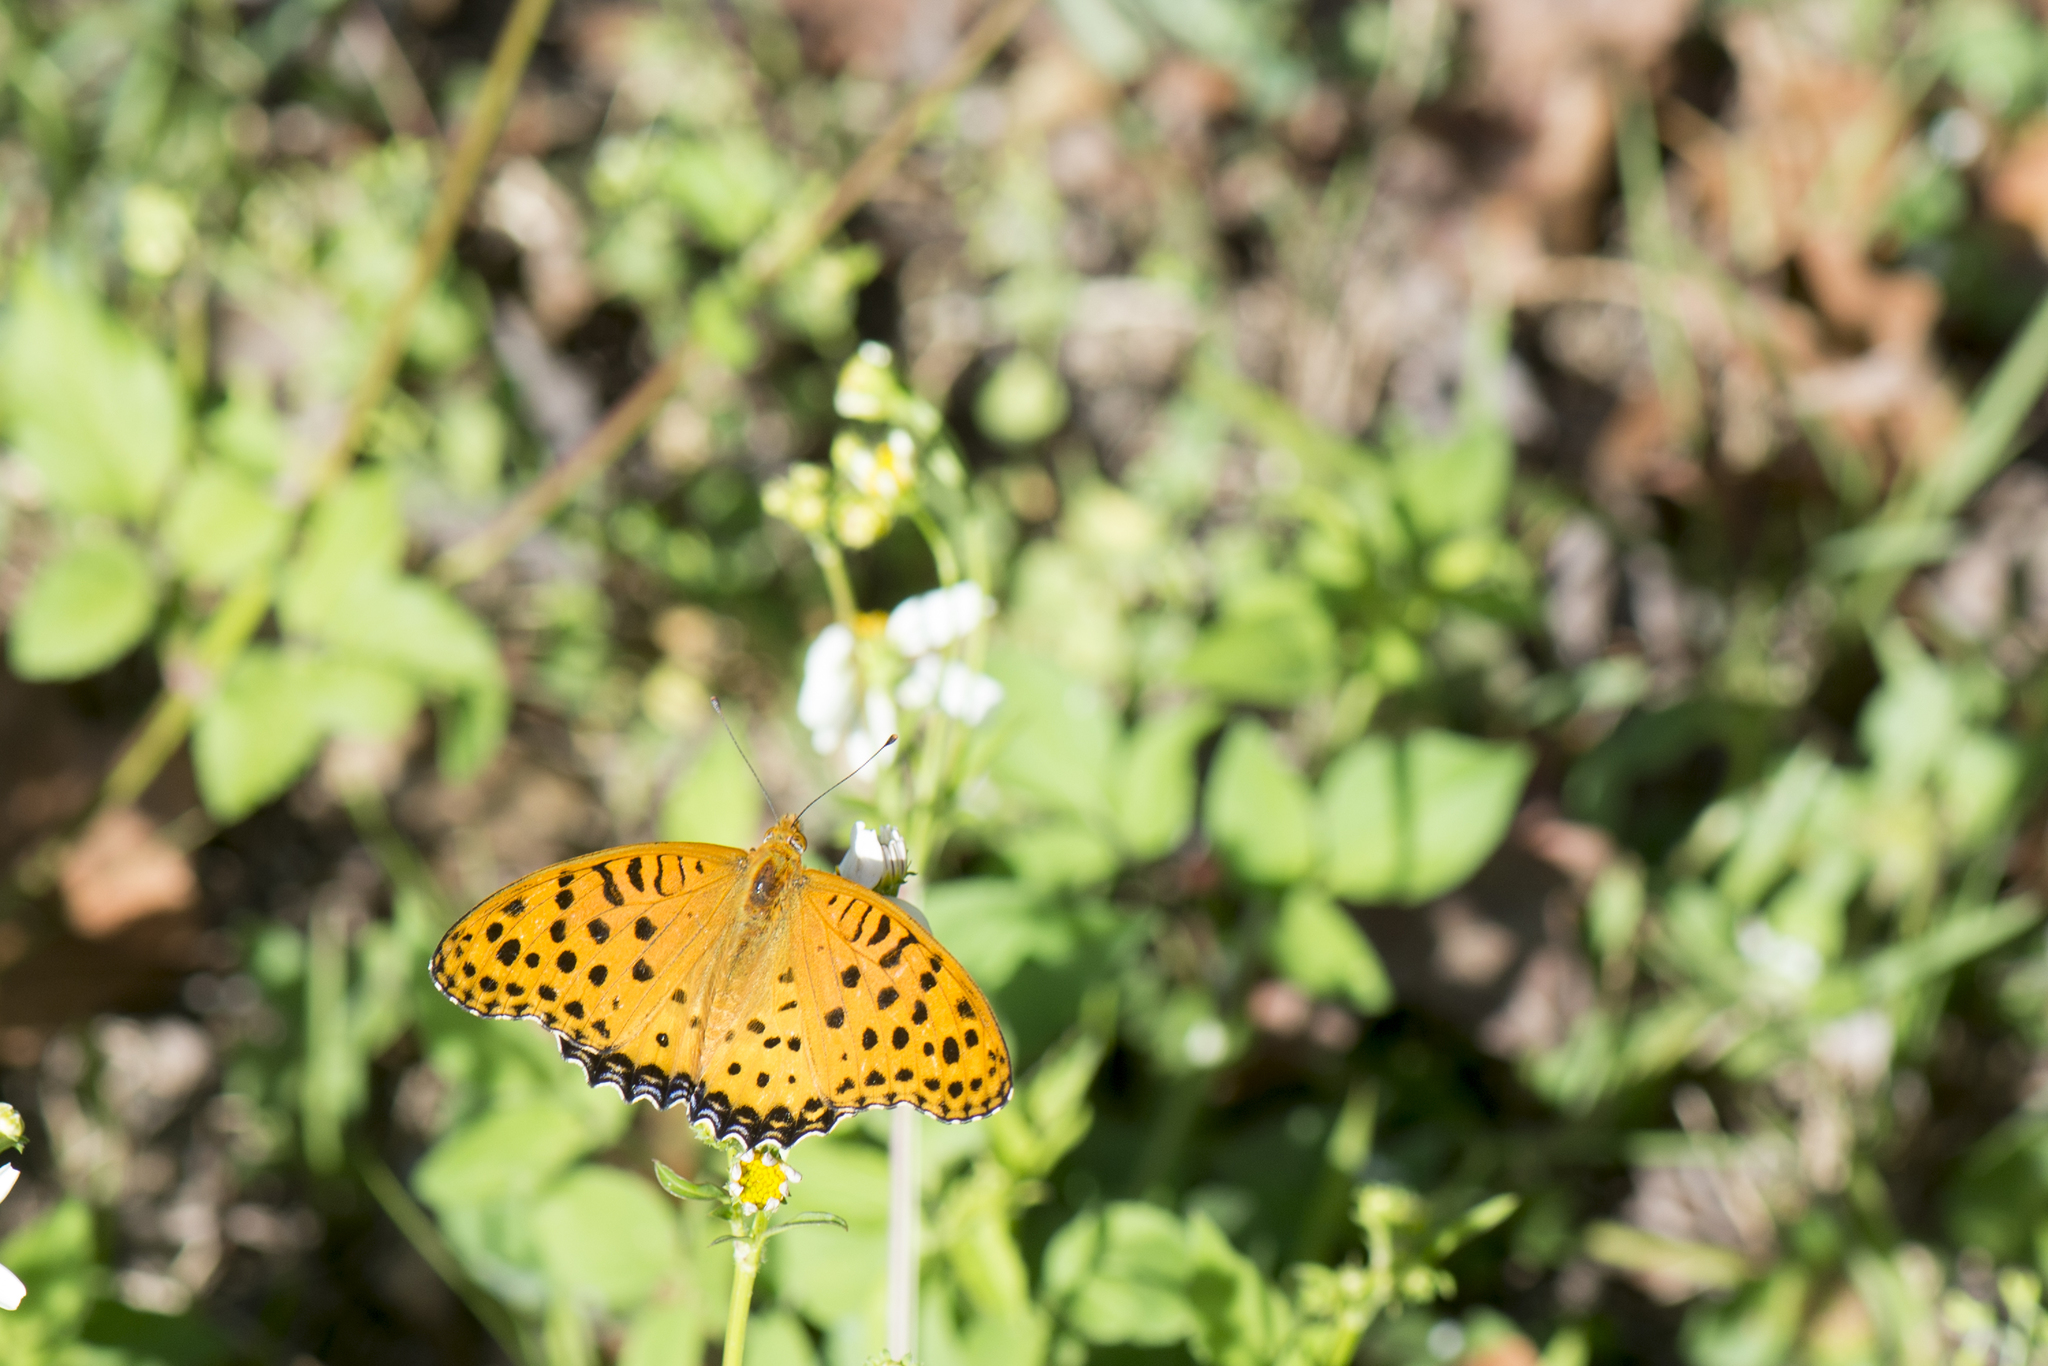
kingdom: Animalia
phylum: Arthropoda
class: Insecta
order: Lepidoptera
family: Nymphalidae
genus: Argynnis
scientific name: Argynnis hyperbius
